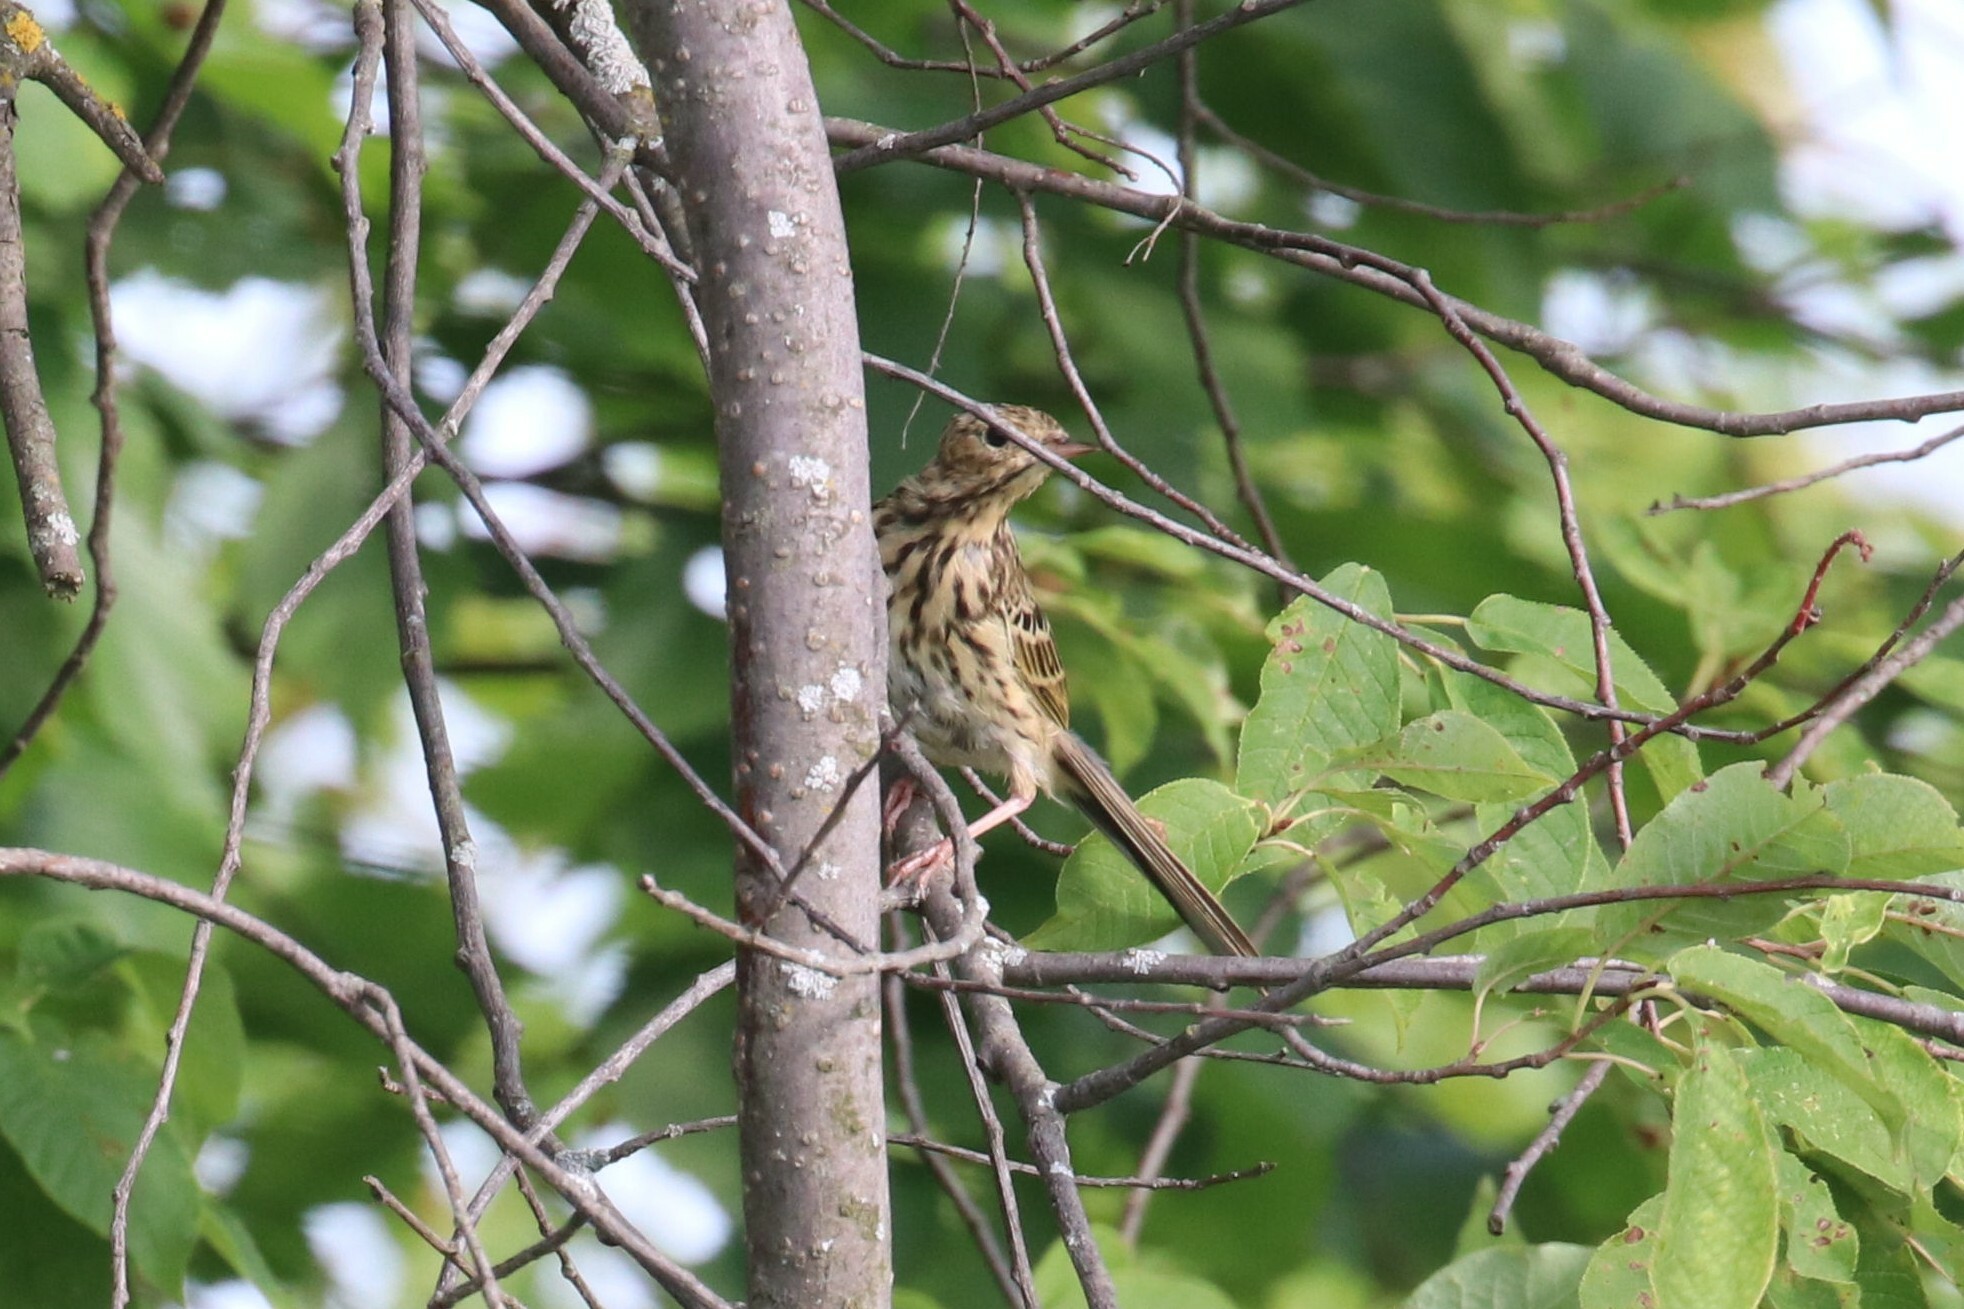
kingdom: Animalia
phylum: Chordata
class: Aves
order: Passeriformes
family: Motacillidae
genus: Anthus
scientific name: Anthus trivialis
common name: Tree pipit
